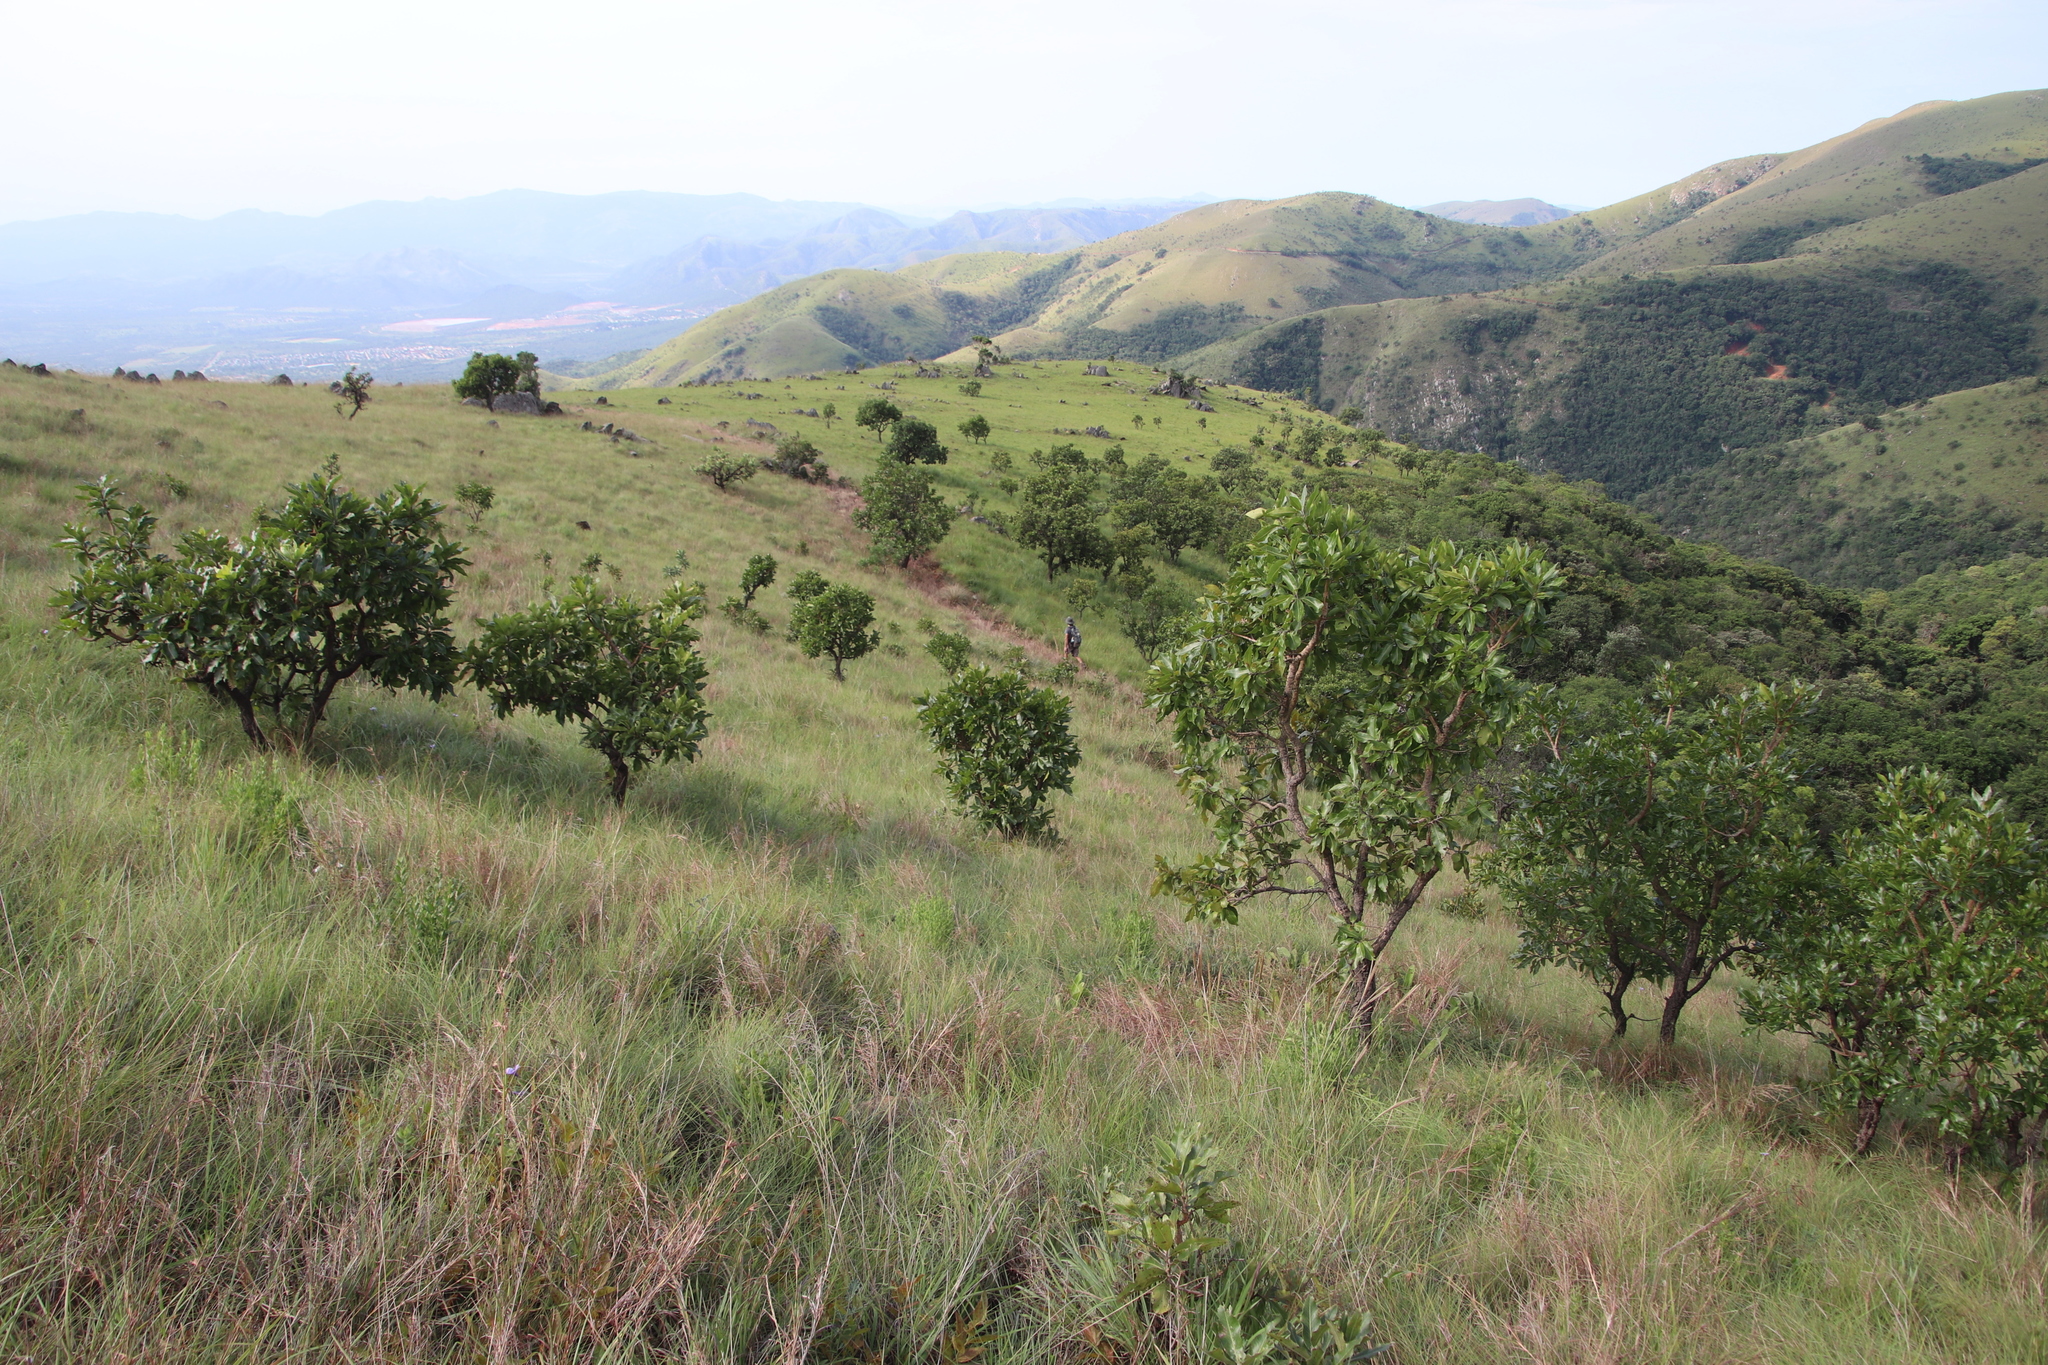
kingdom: Plantae
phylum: Tracheophyta
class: Magnoliopsida
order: Proteales
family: Proteaceae
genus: Faurea
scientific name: Faurea rochetiana
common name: Broad-leaved beech
